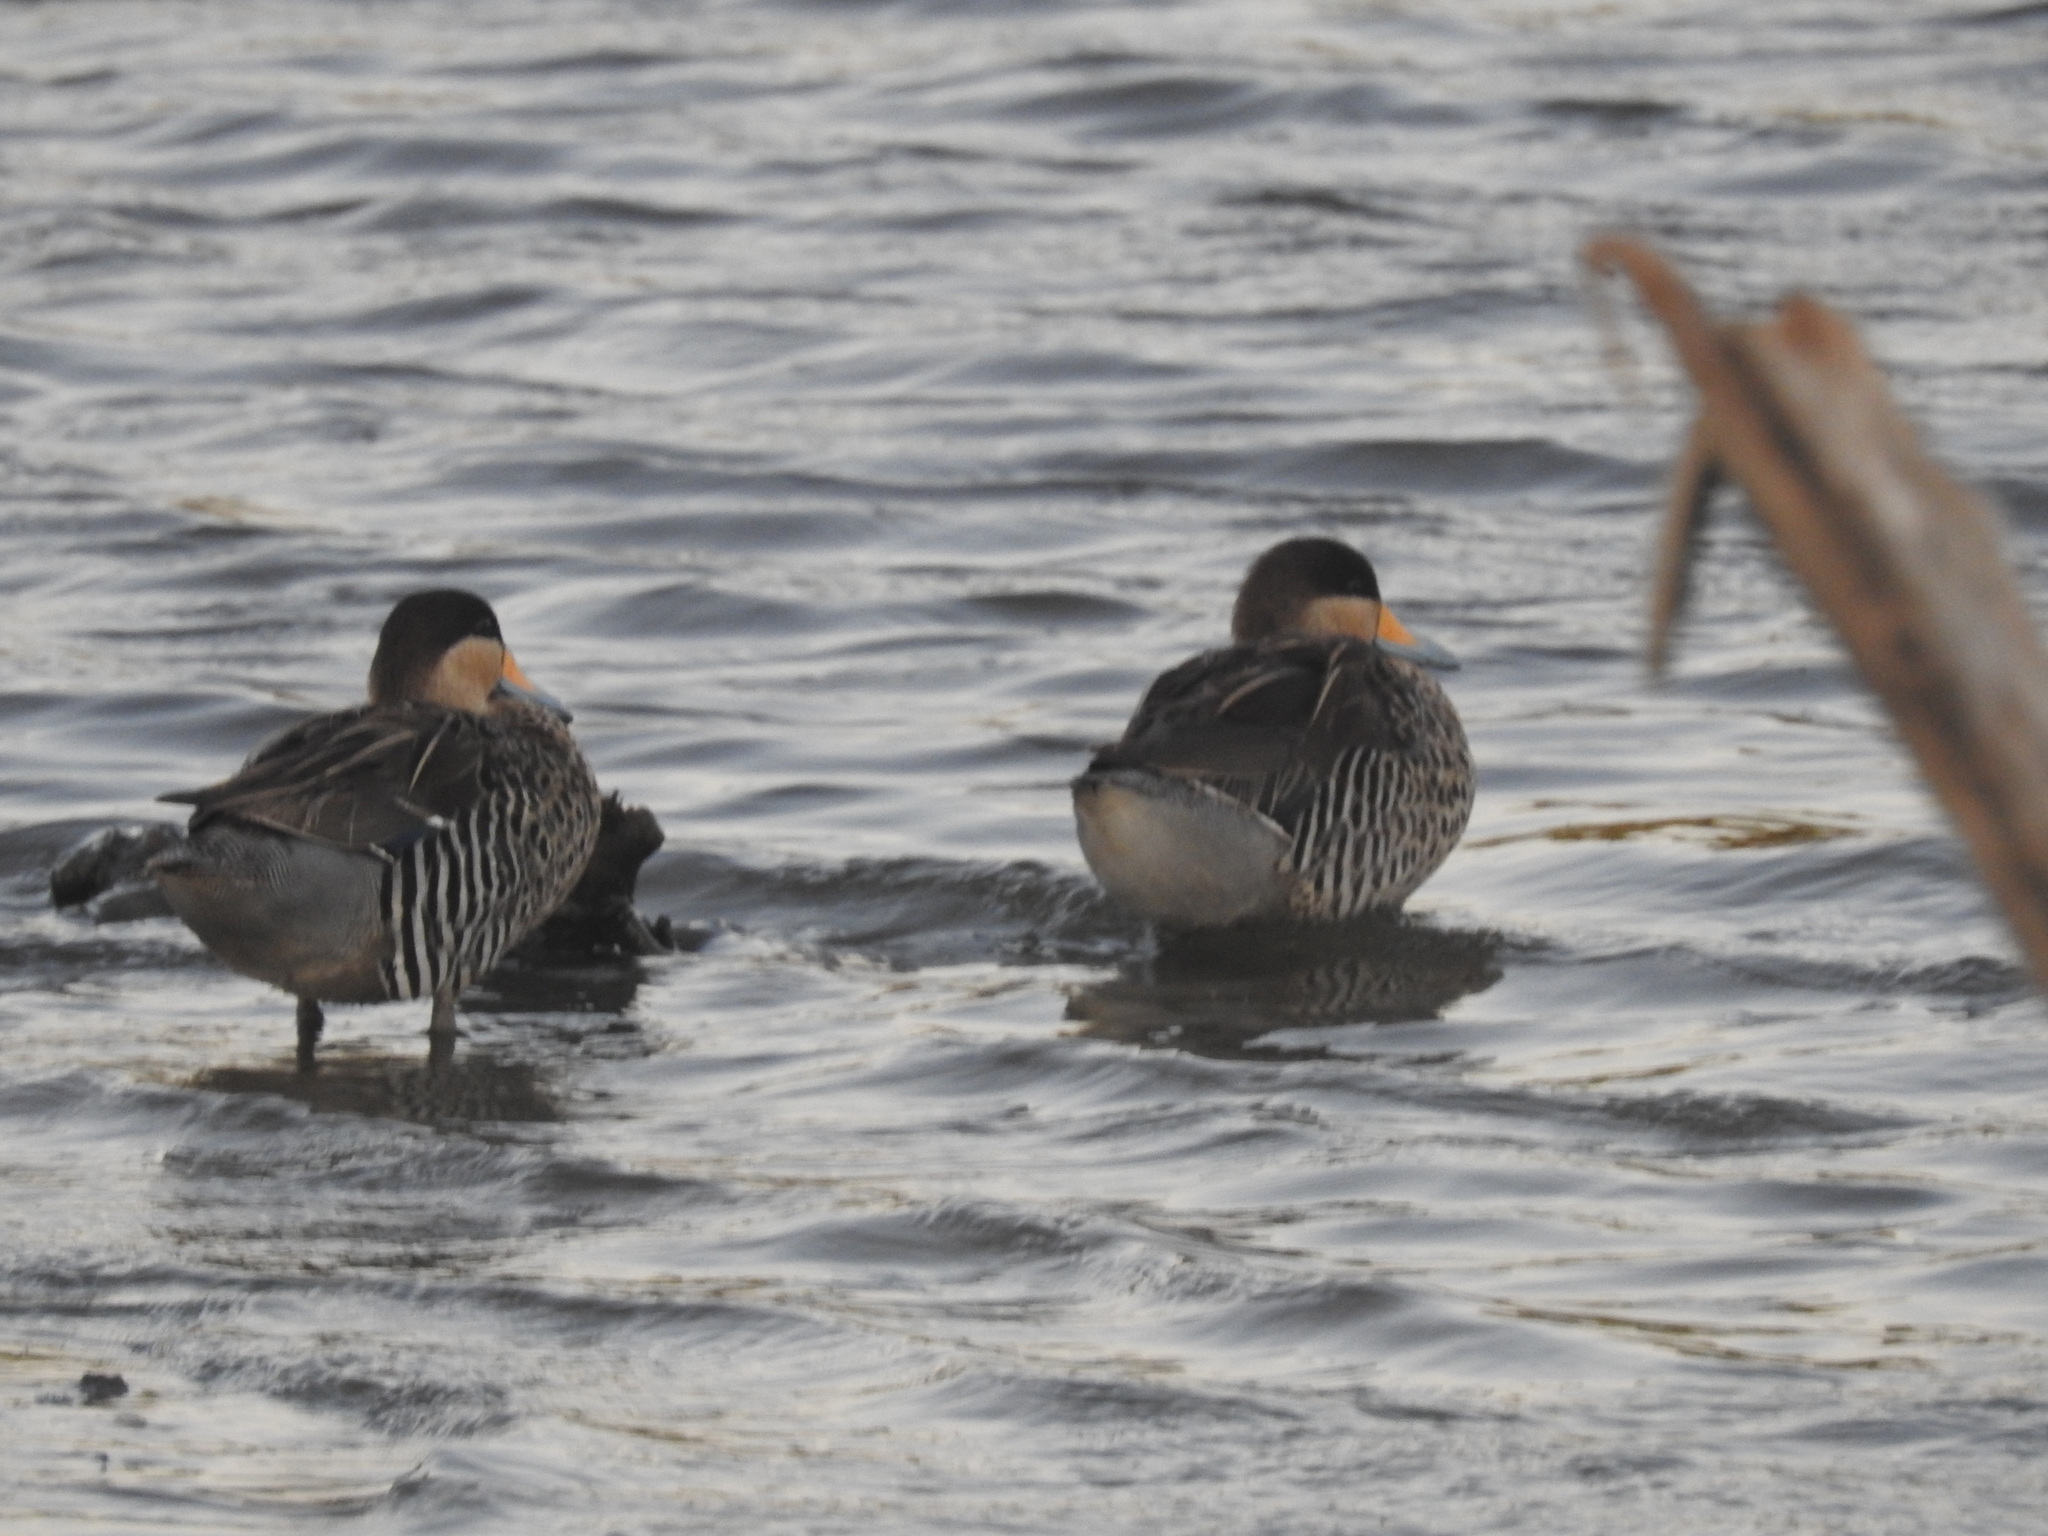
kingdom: Animalia
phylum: Chordata
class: Aves
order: Anseriformes
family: Anatidae
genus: Spatula
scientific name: Spatula versicolor
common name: Silver teal
